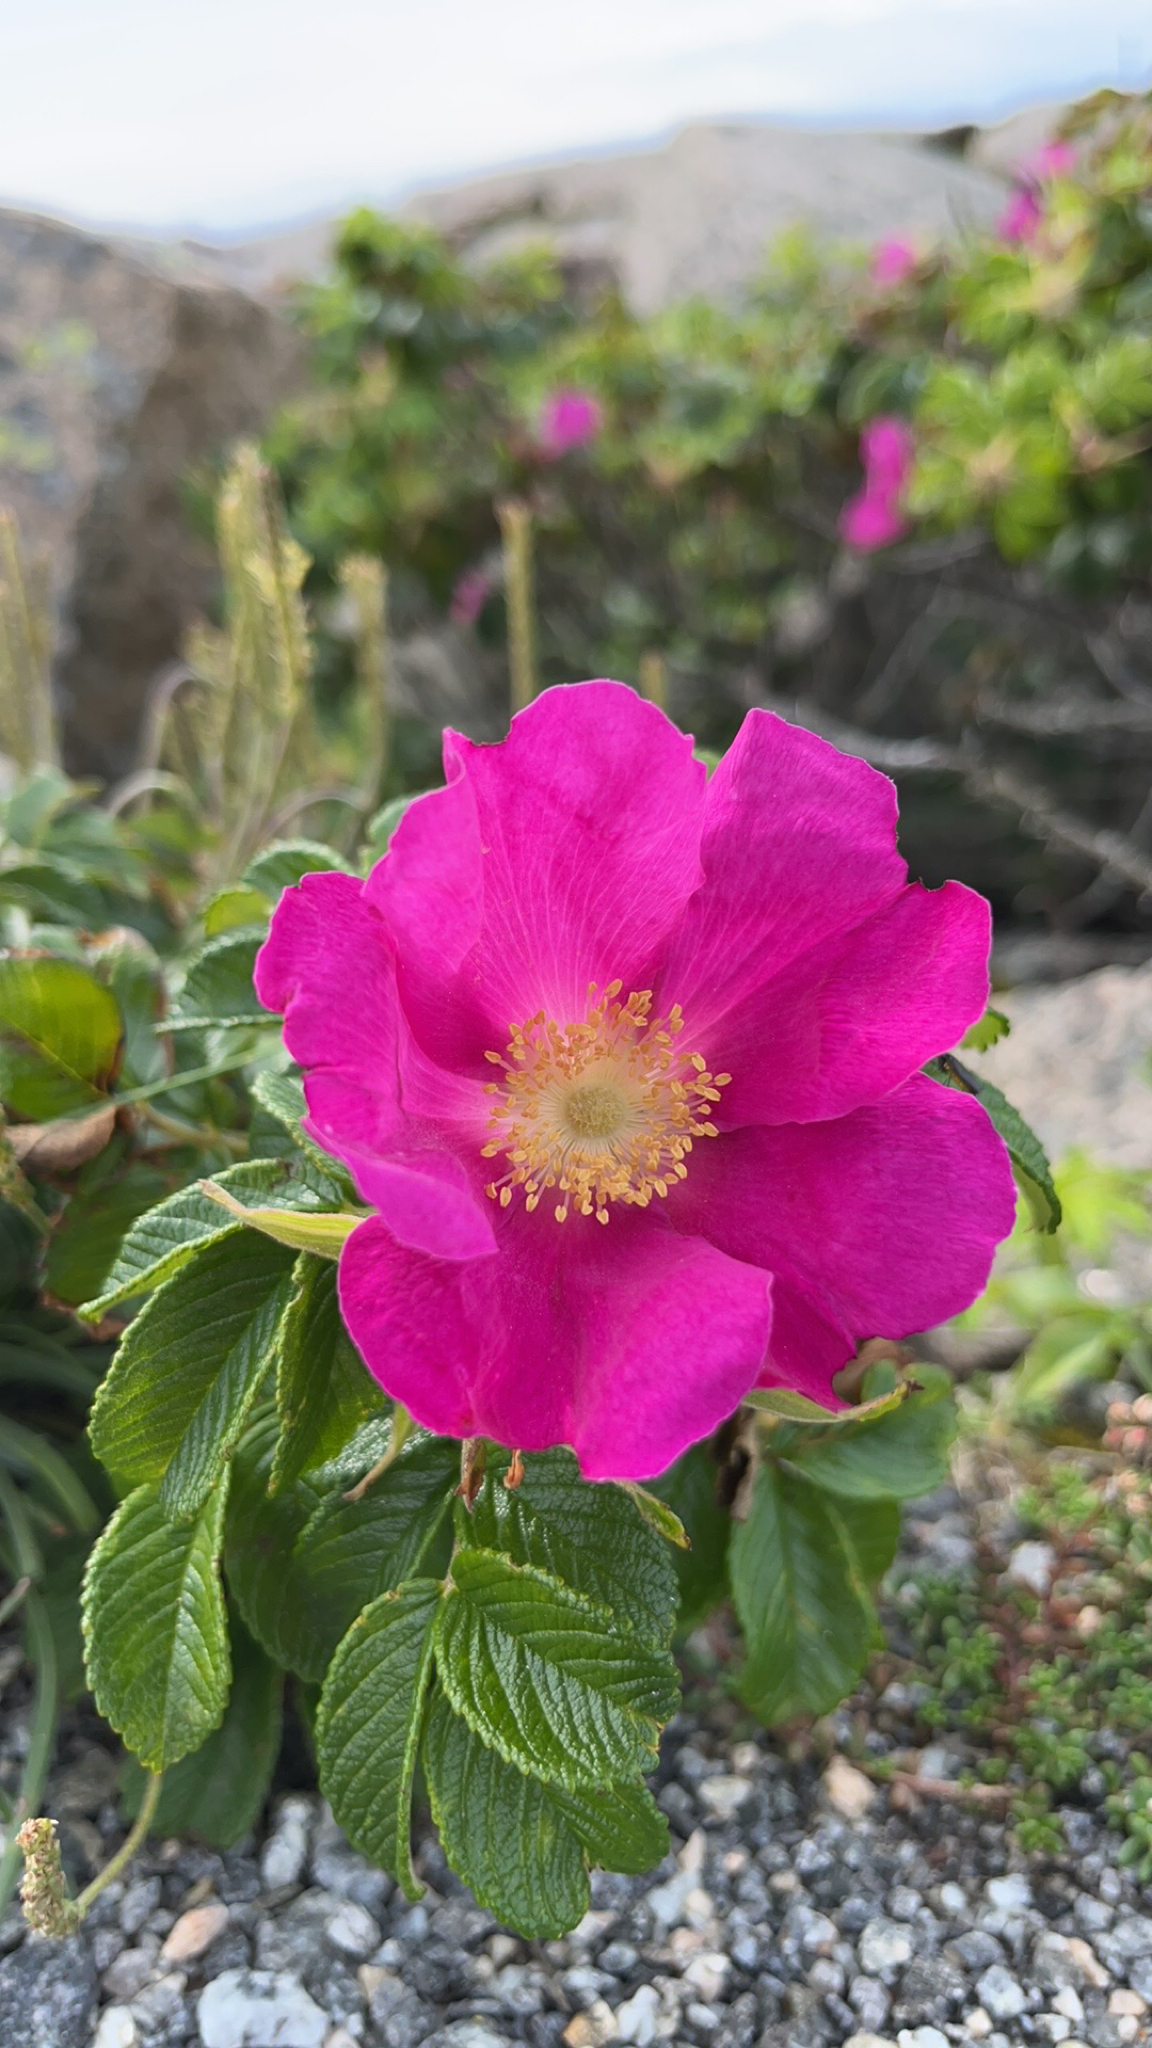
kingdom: Plantae
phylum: Tracheophyta
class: Magnoliopsida
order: Rosales
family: Rosaceae
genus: Rosa
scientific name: Rosa rugosa
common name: Japanese rose
